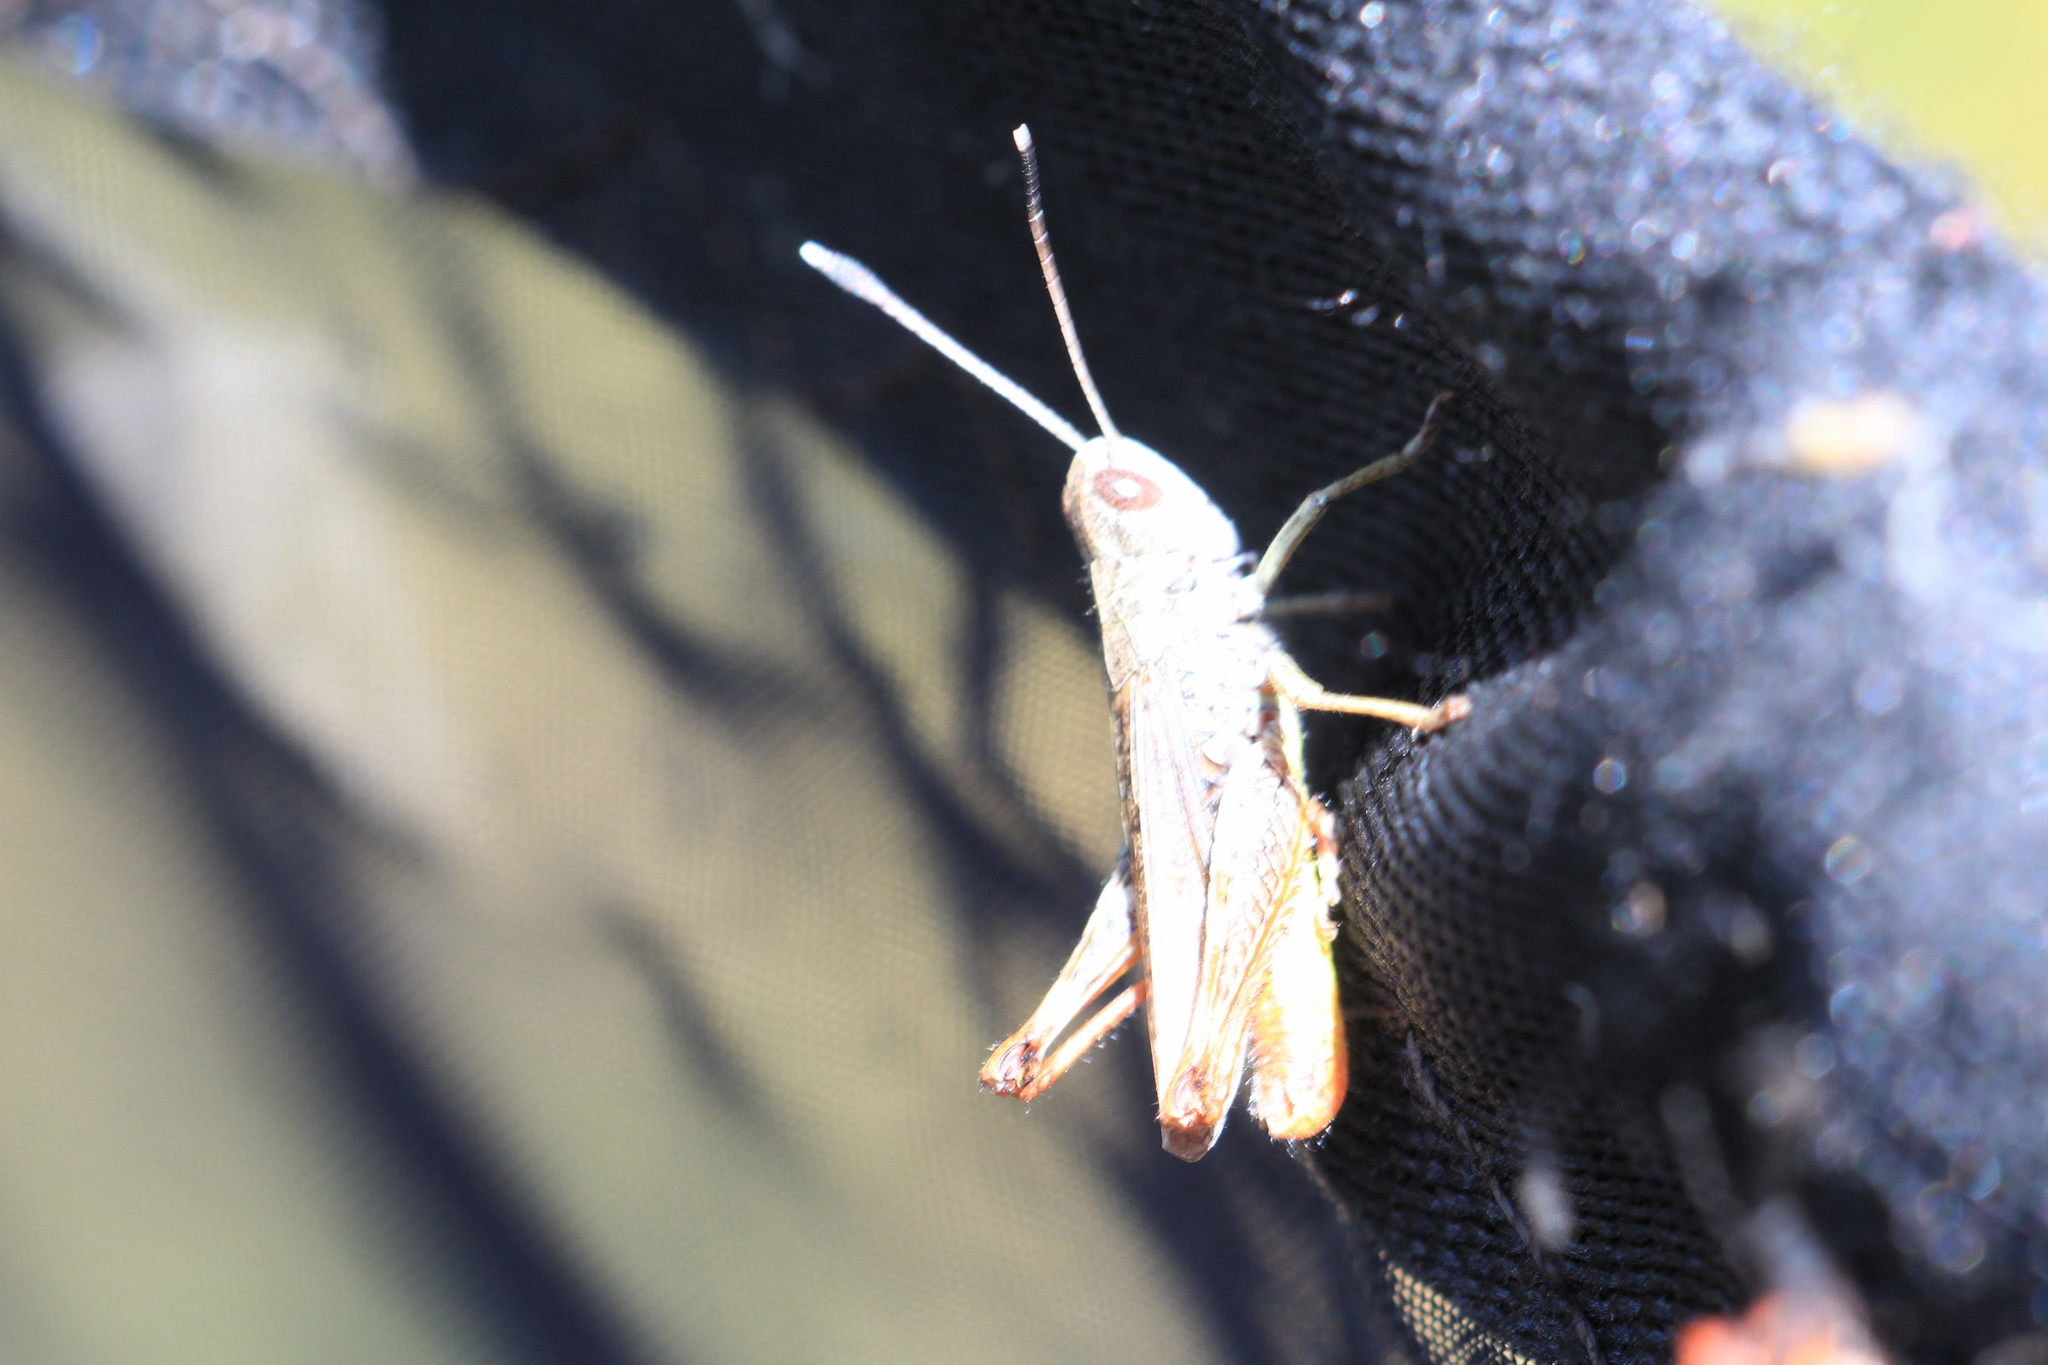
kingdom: Animalia
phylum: Arthropoda
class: Insecta
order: Orthoptera
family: Acrididae
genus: Gomphocerippus
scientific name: Gomphocerippus rufus
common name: Rufous grasshopper
